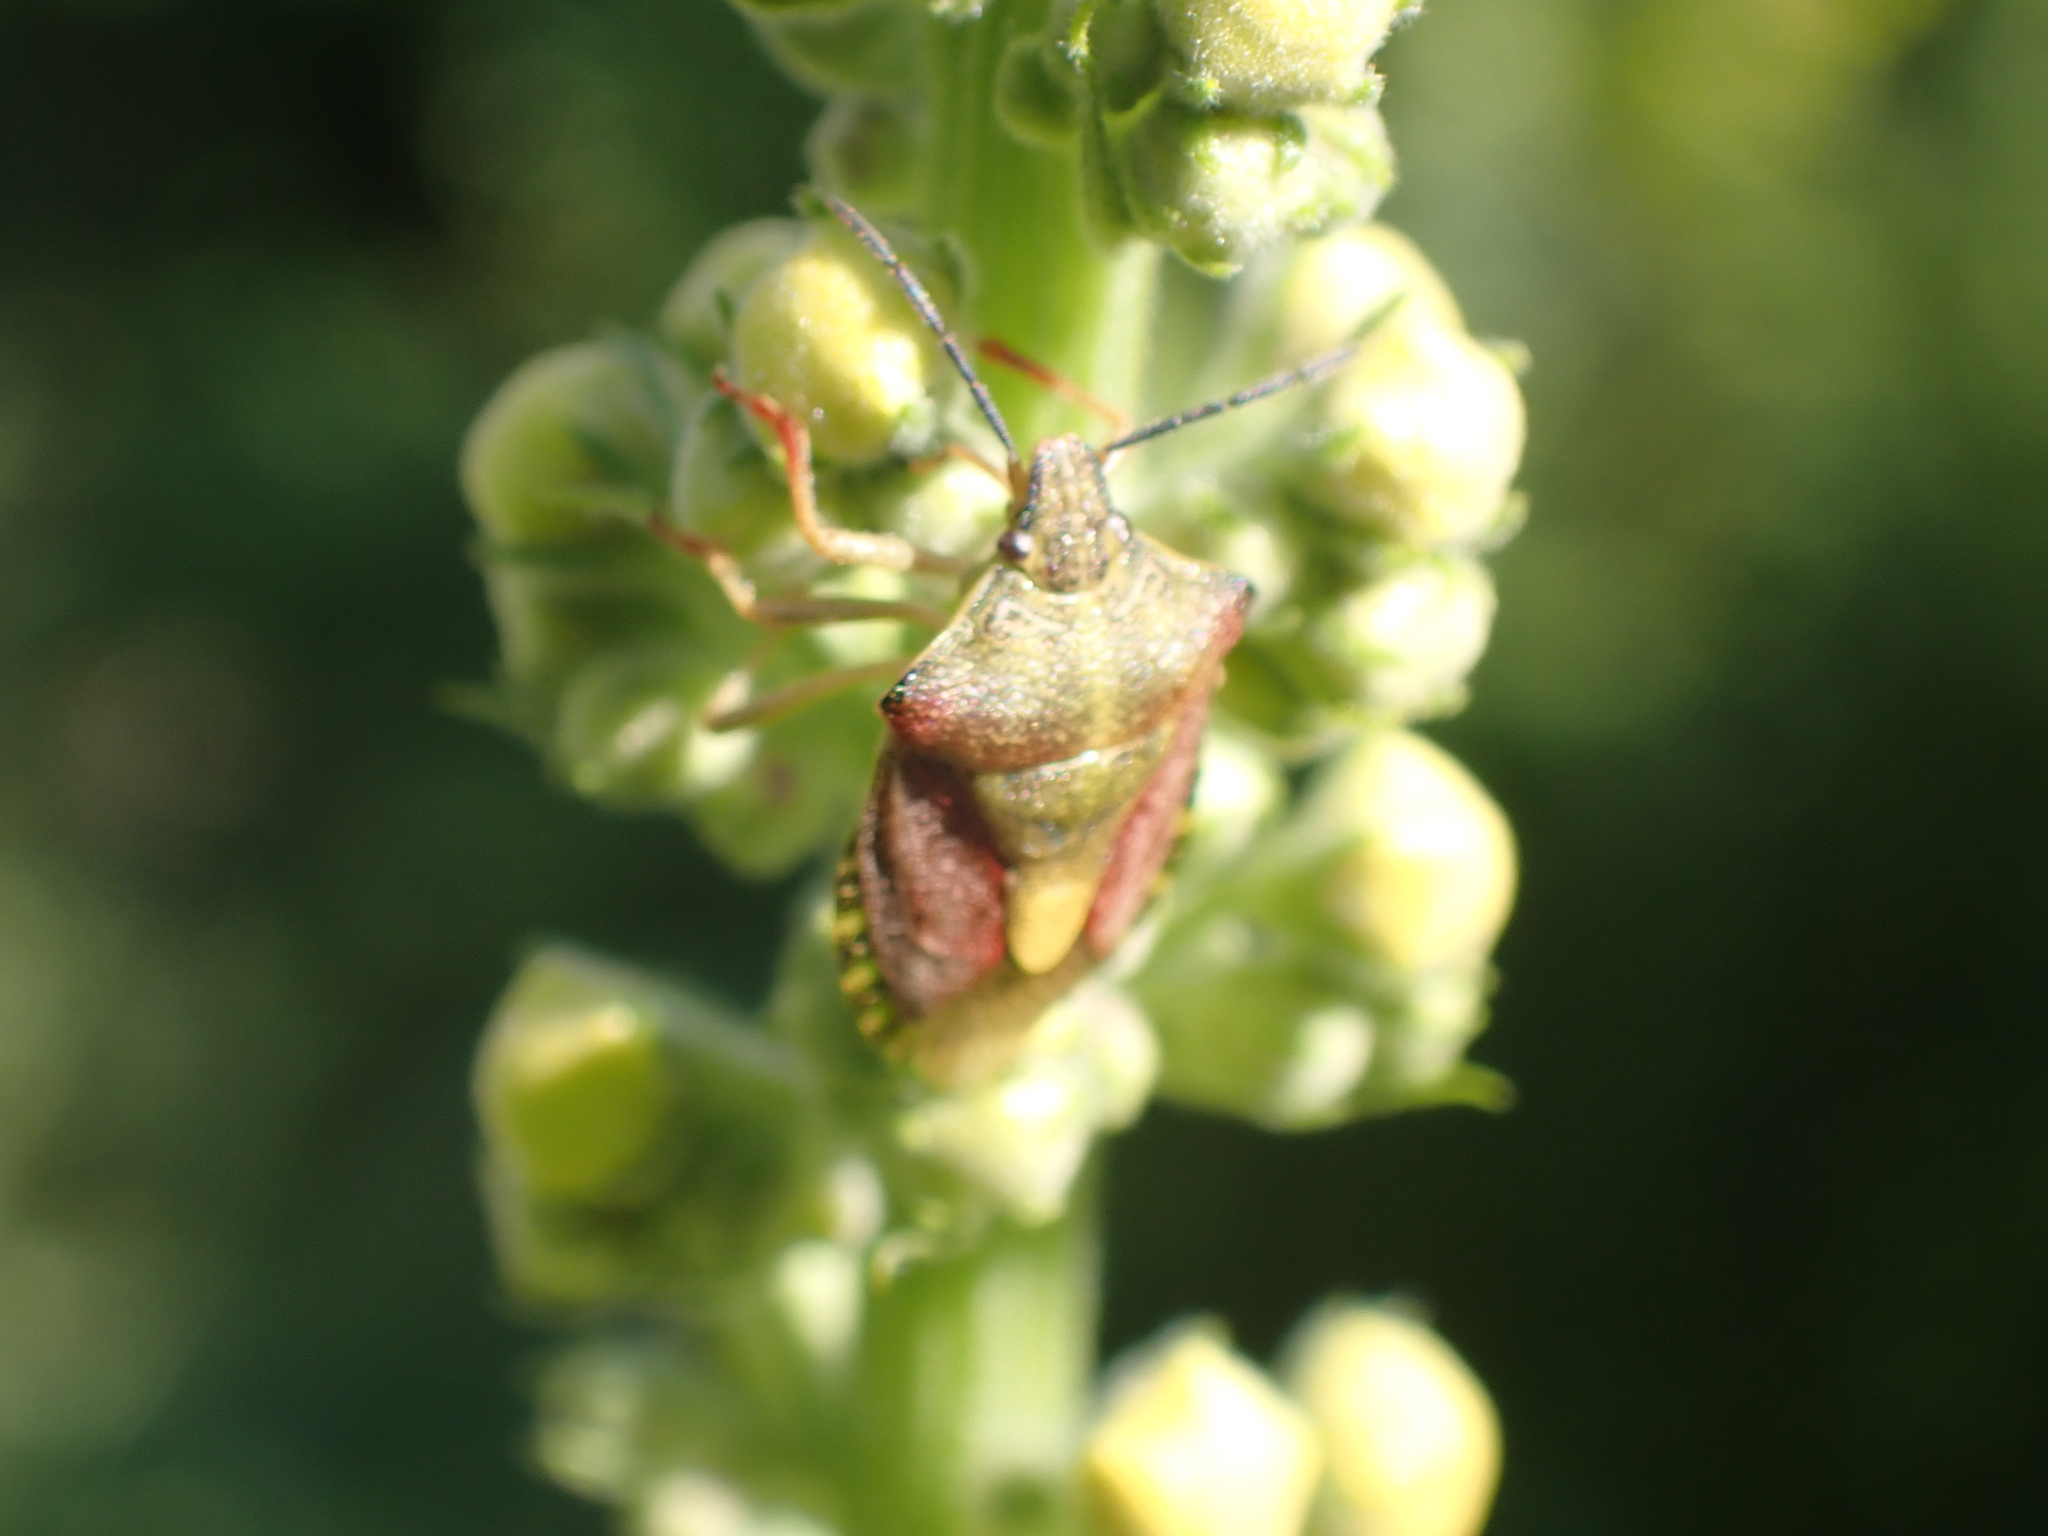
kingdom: Animalia
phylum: Arthropoda
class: Insecta
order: Hemiptera
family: Pentatomidae
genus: Carpocoris
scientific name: Carpocoris purpureipennis
